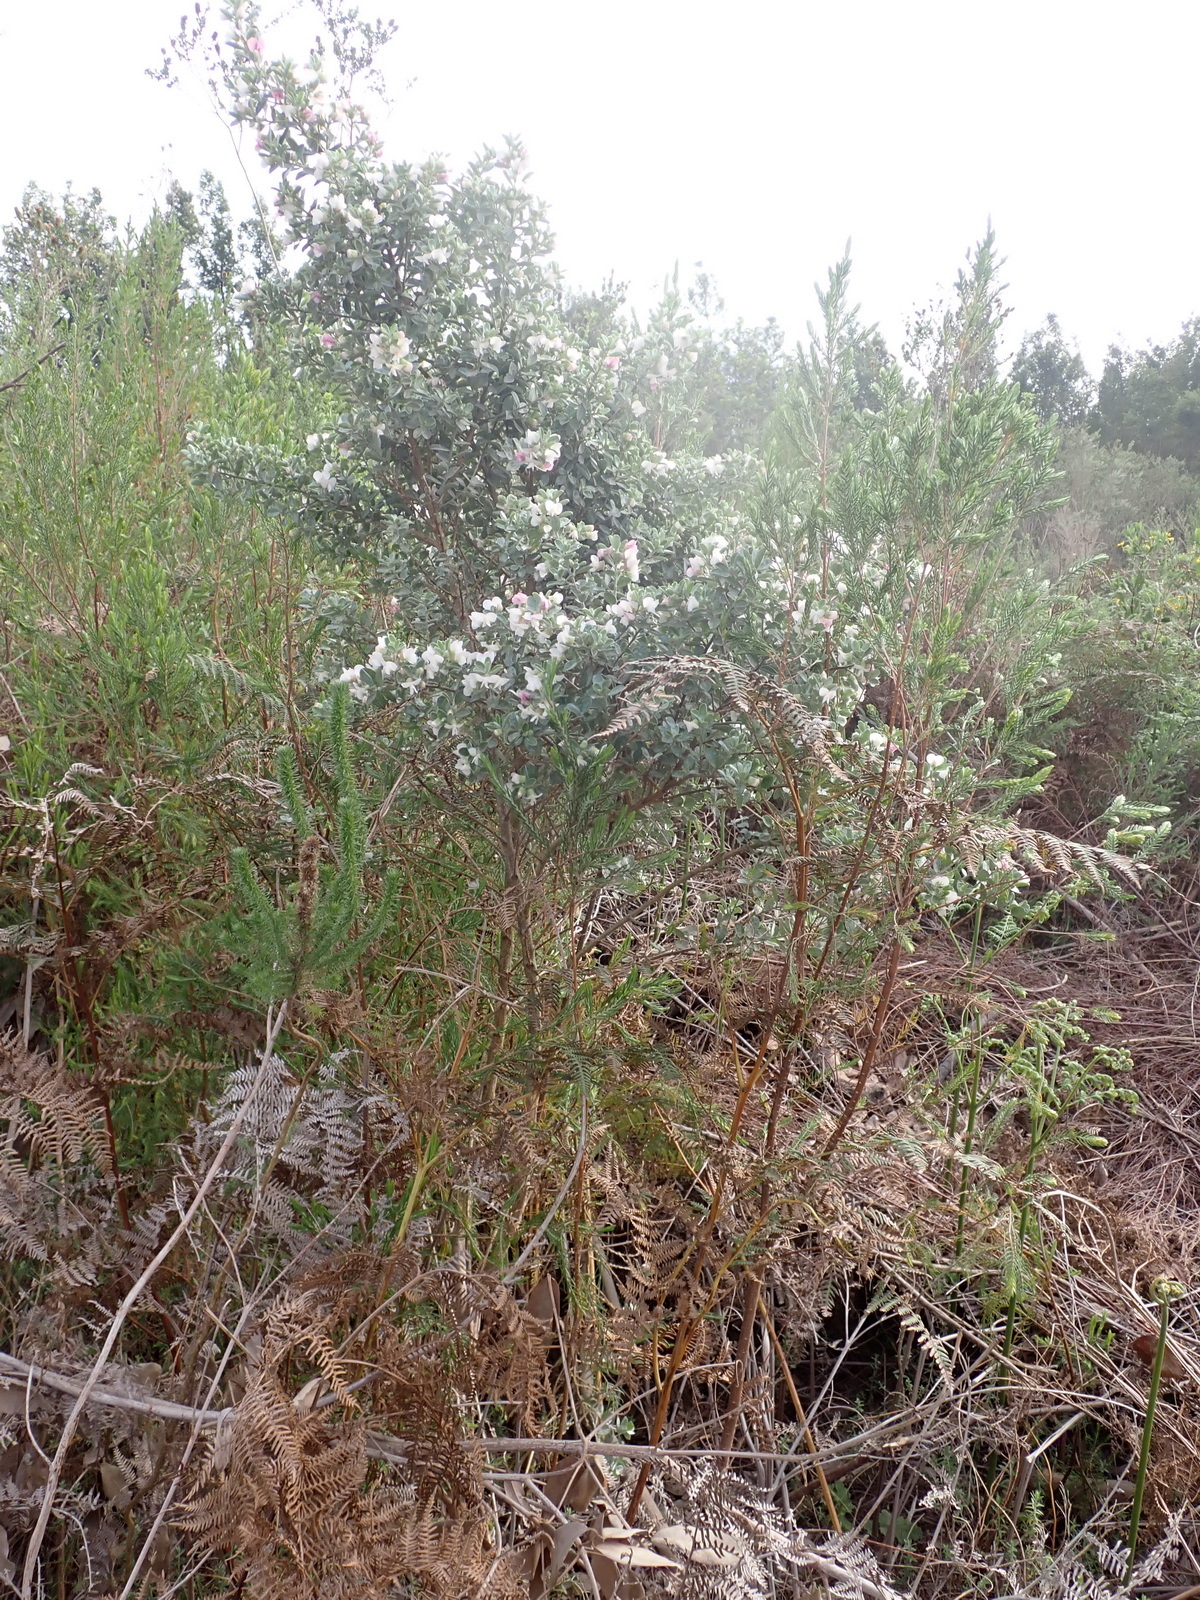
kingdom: Plantae
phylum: Tracheophyta
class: Magnoliopsida
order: Fabales
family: Fabaceae
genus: Podalyria
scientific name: Podalyria myrtillifolia
